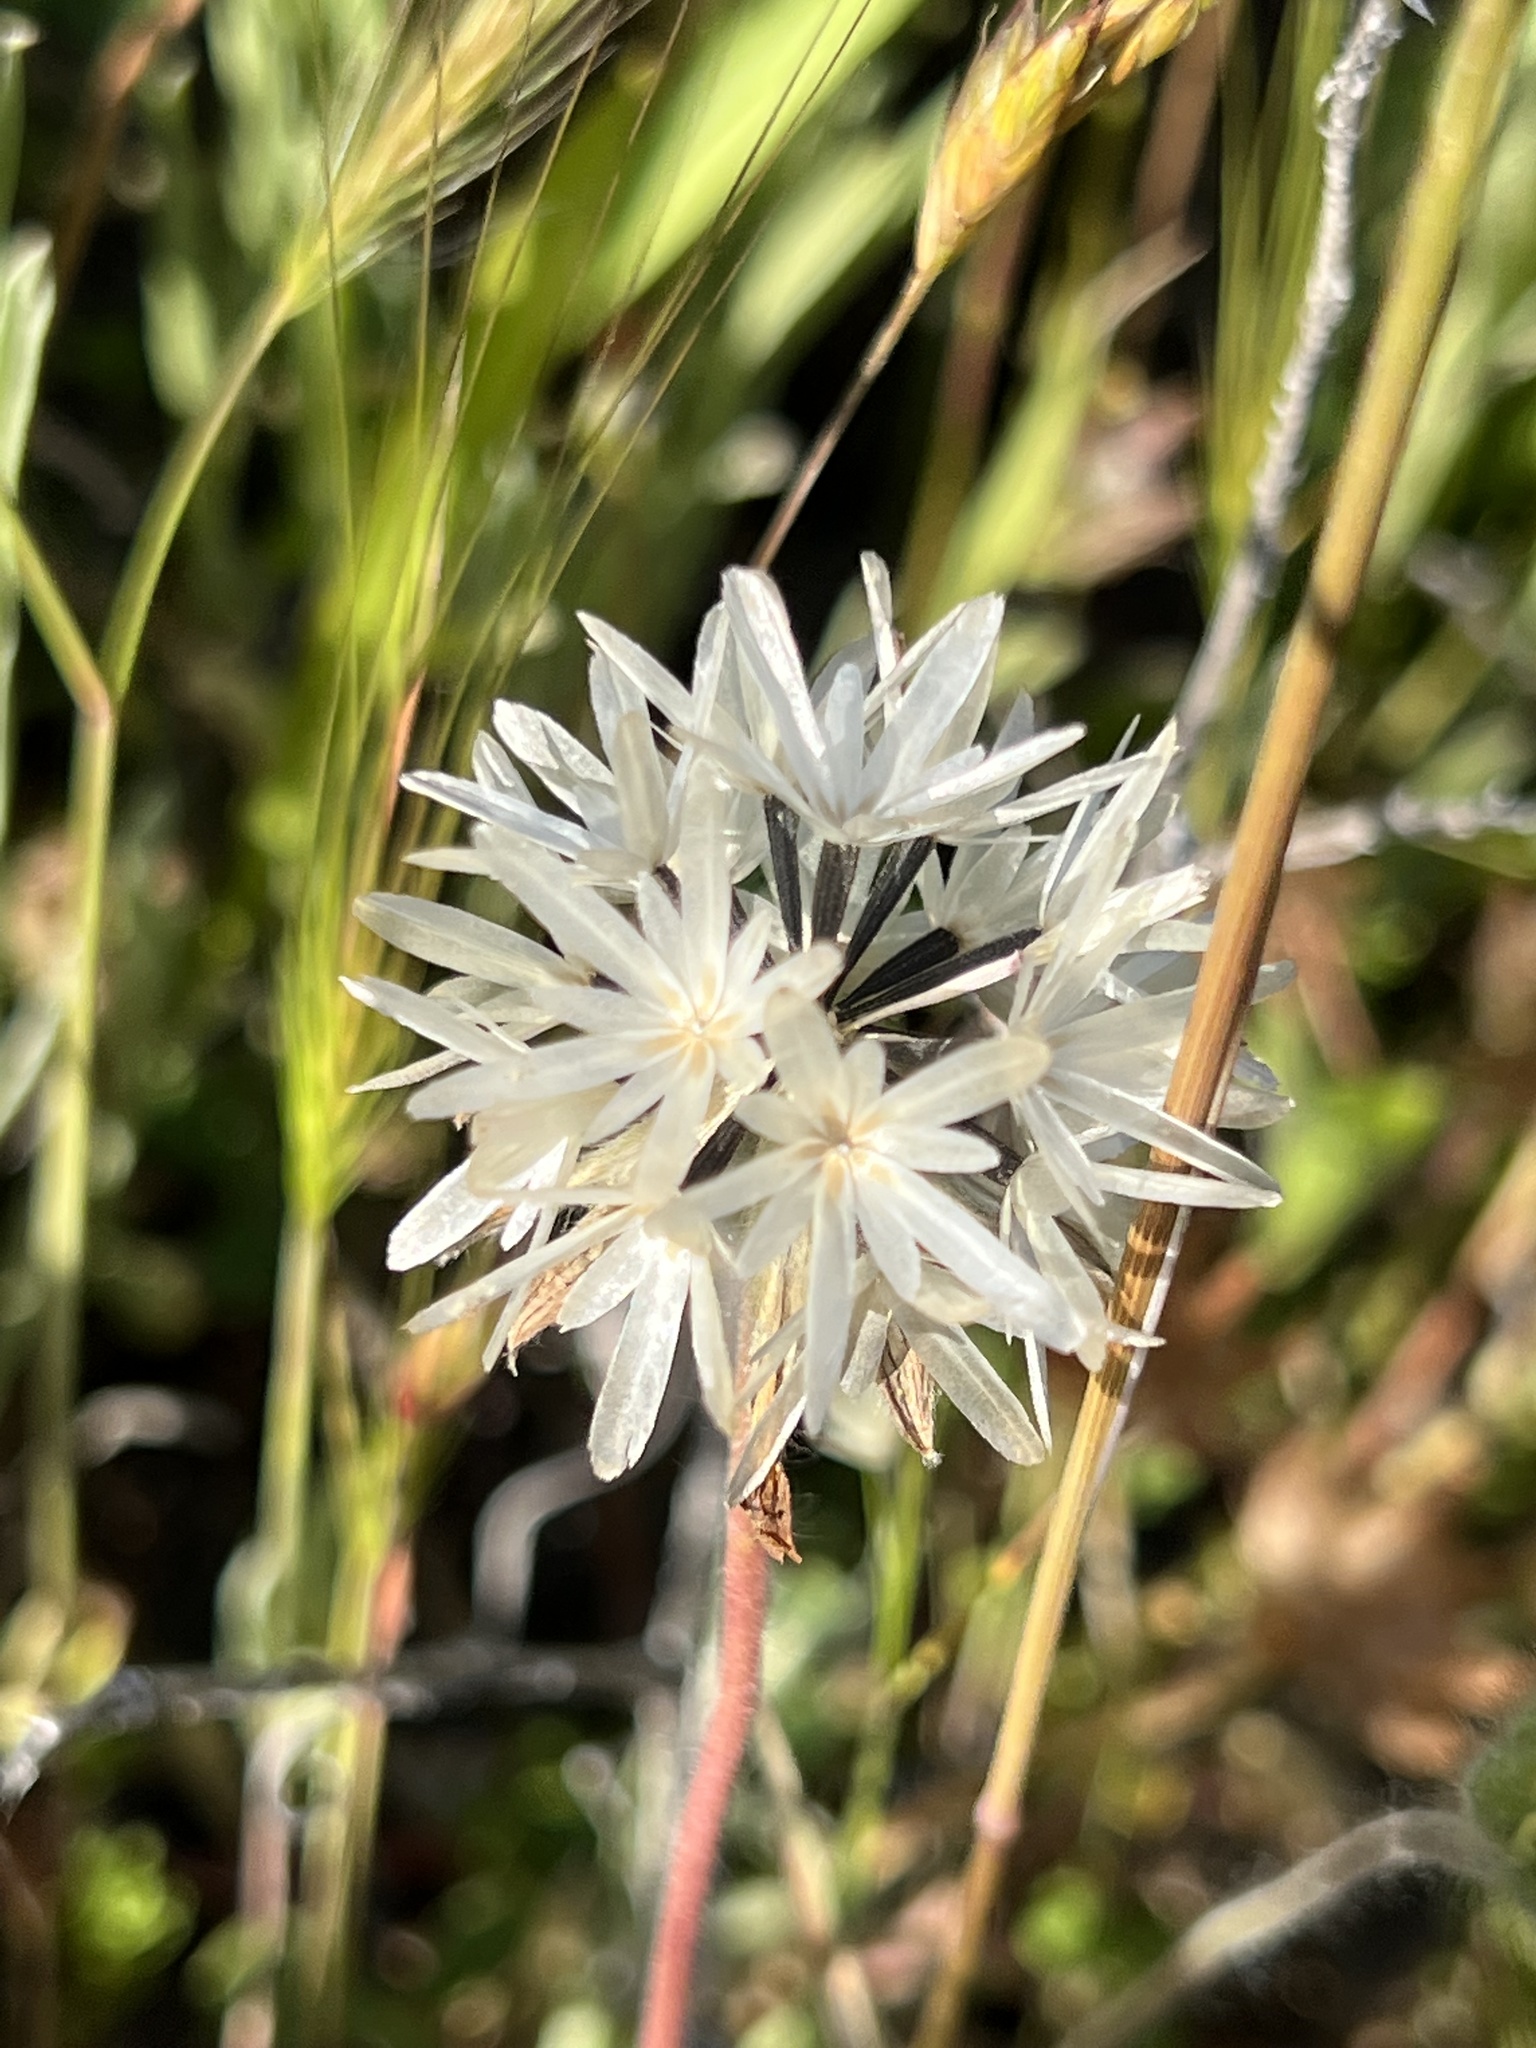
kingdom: Plantae
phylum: Tracheophyta
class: Magnoliopsida
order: Asterales
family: Asteraceae
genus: Achyrachaena
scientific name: Achyrachaena mollis
